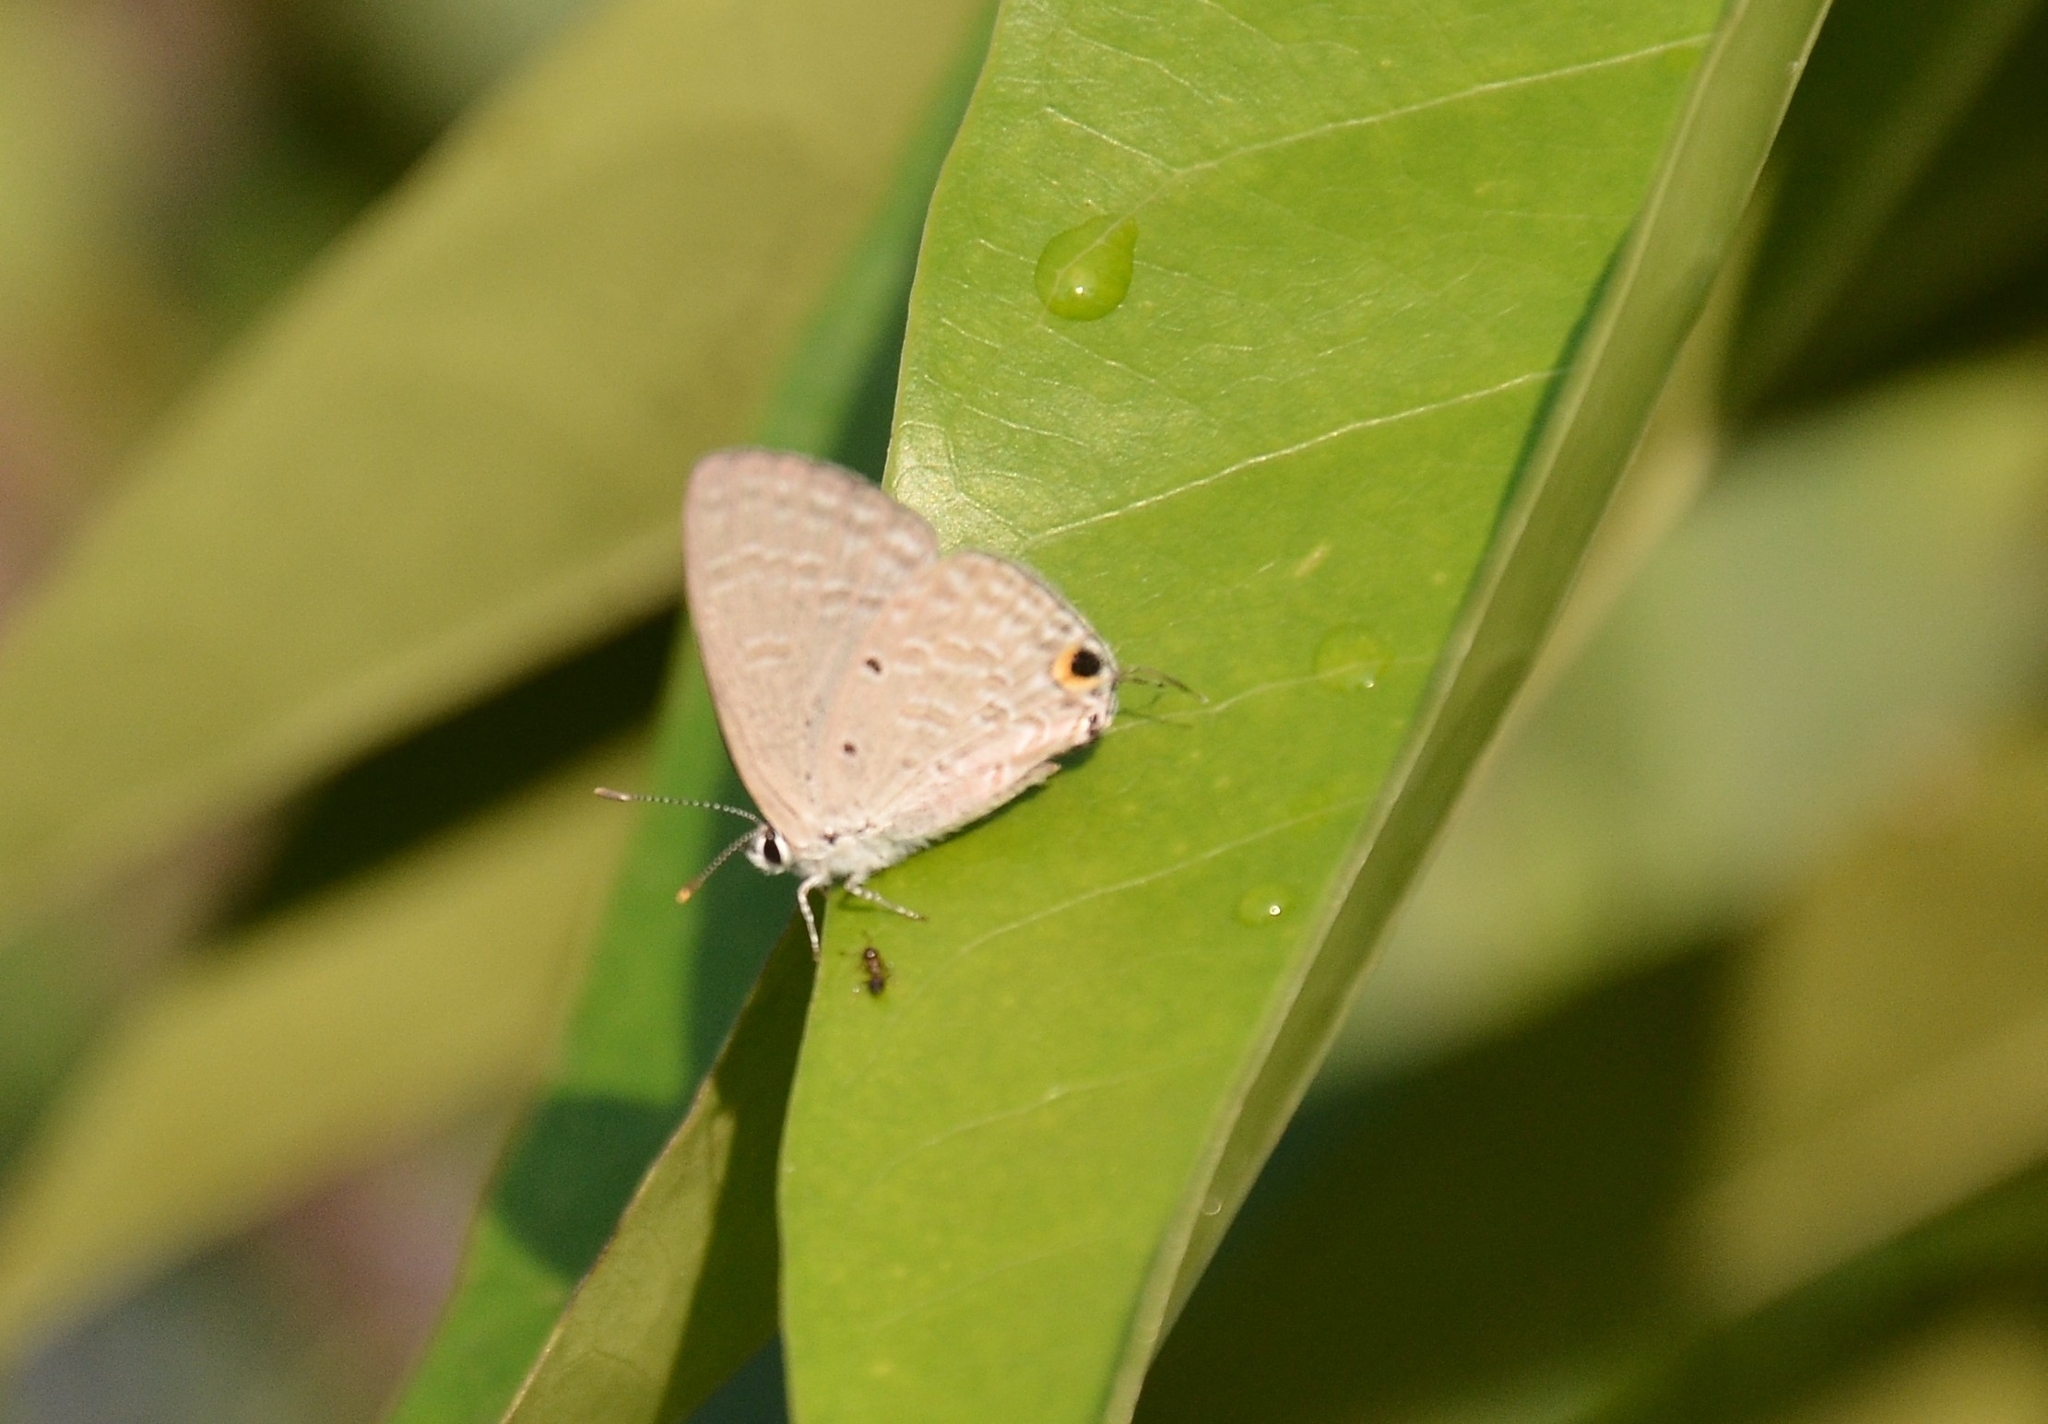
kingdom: Animalia
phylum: Arthropoda
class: Insecta
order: Lepidoptera
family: Lycaenidae
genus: Catochrysops
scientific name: Catochrysops strabo
